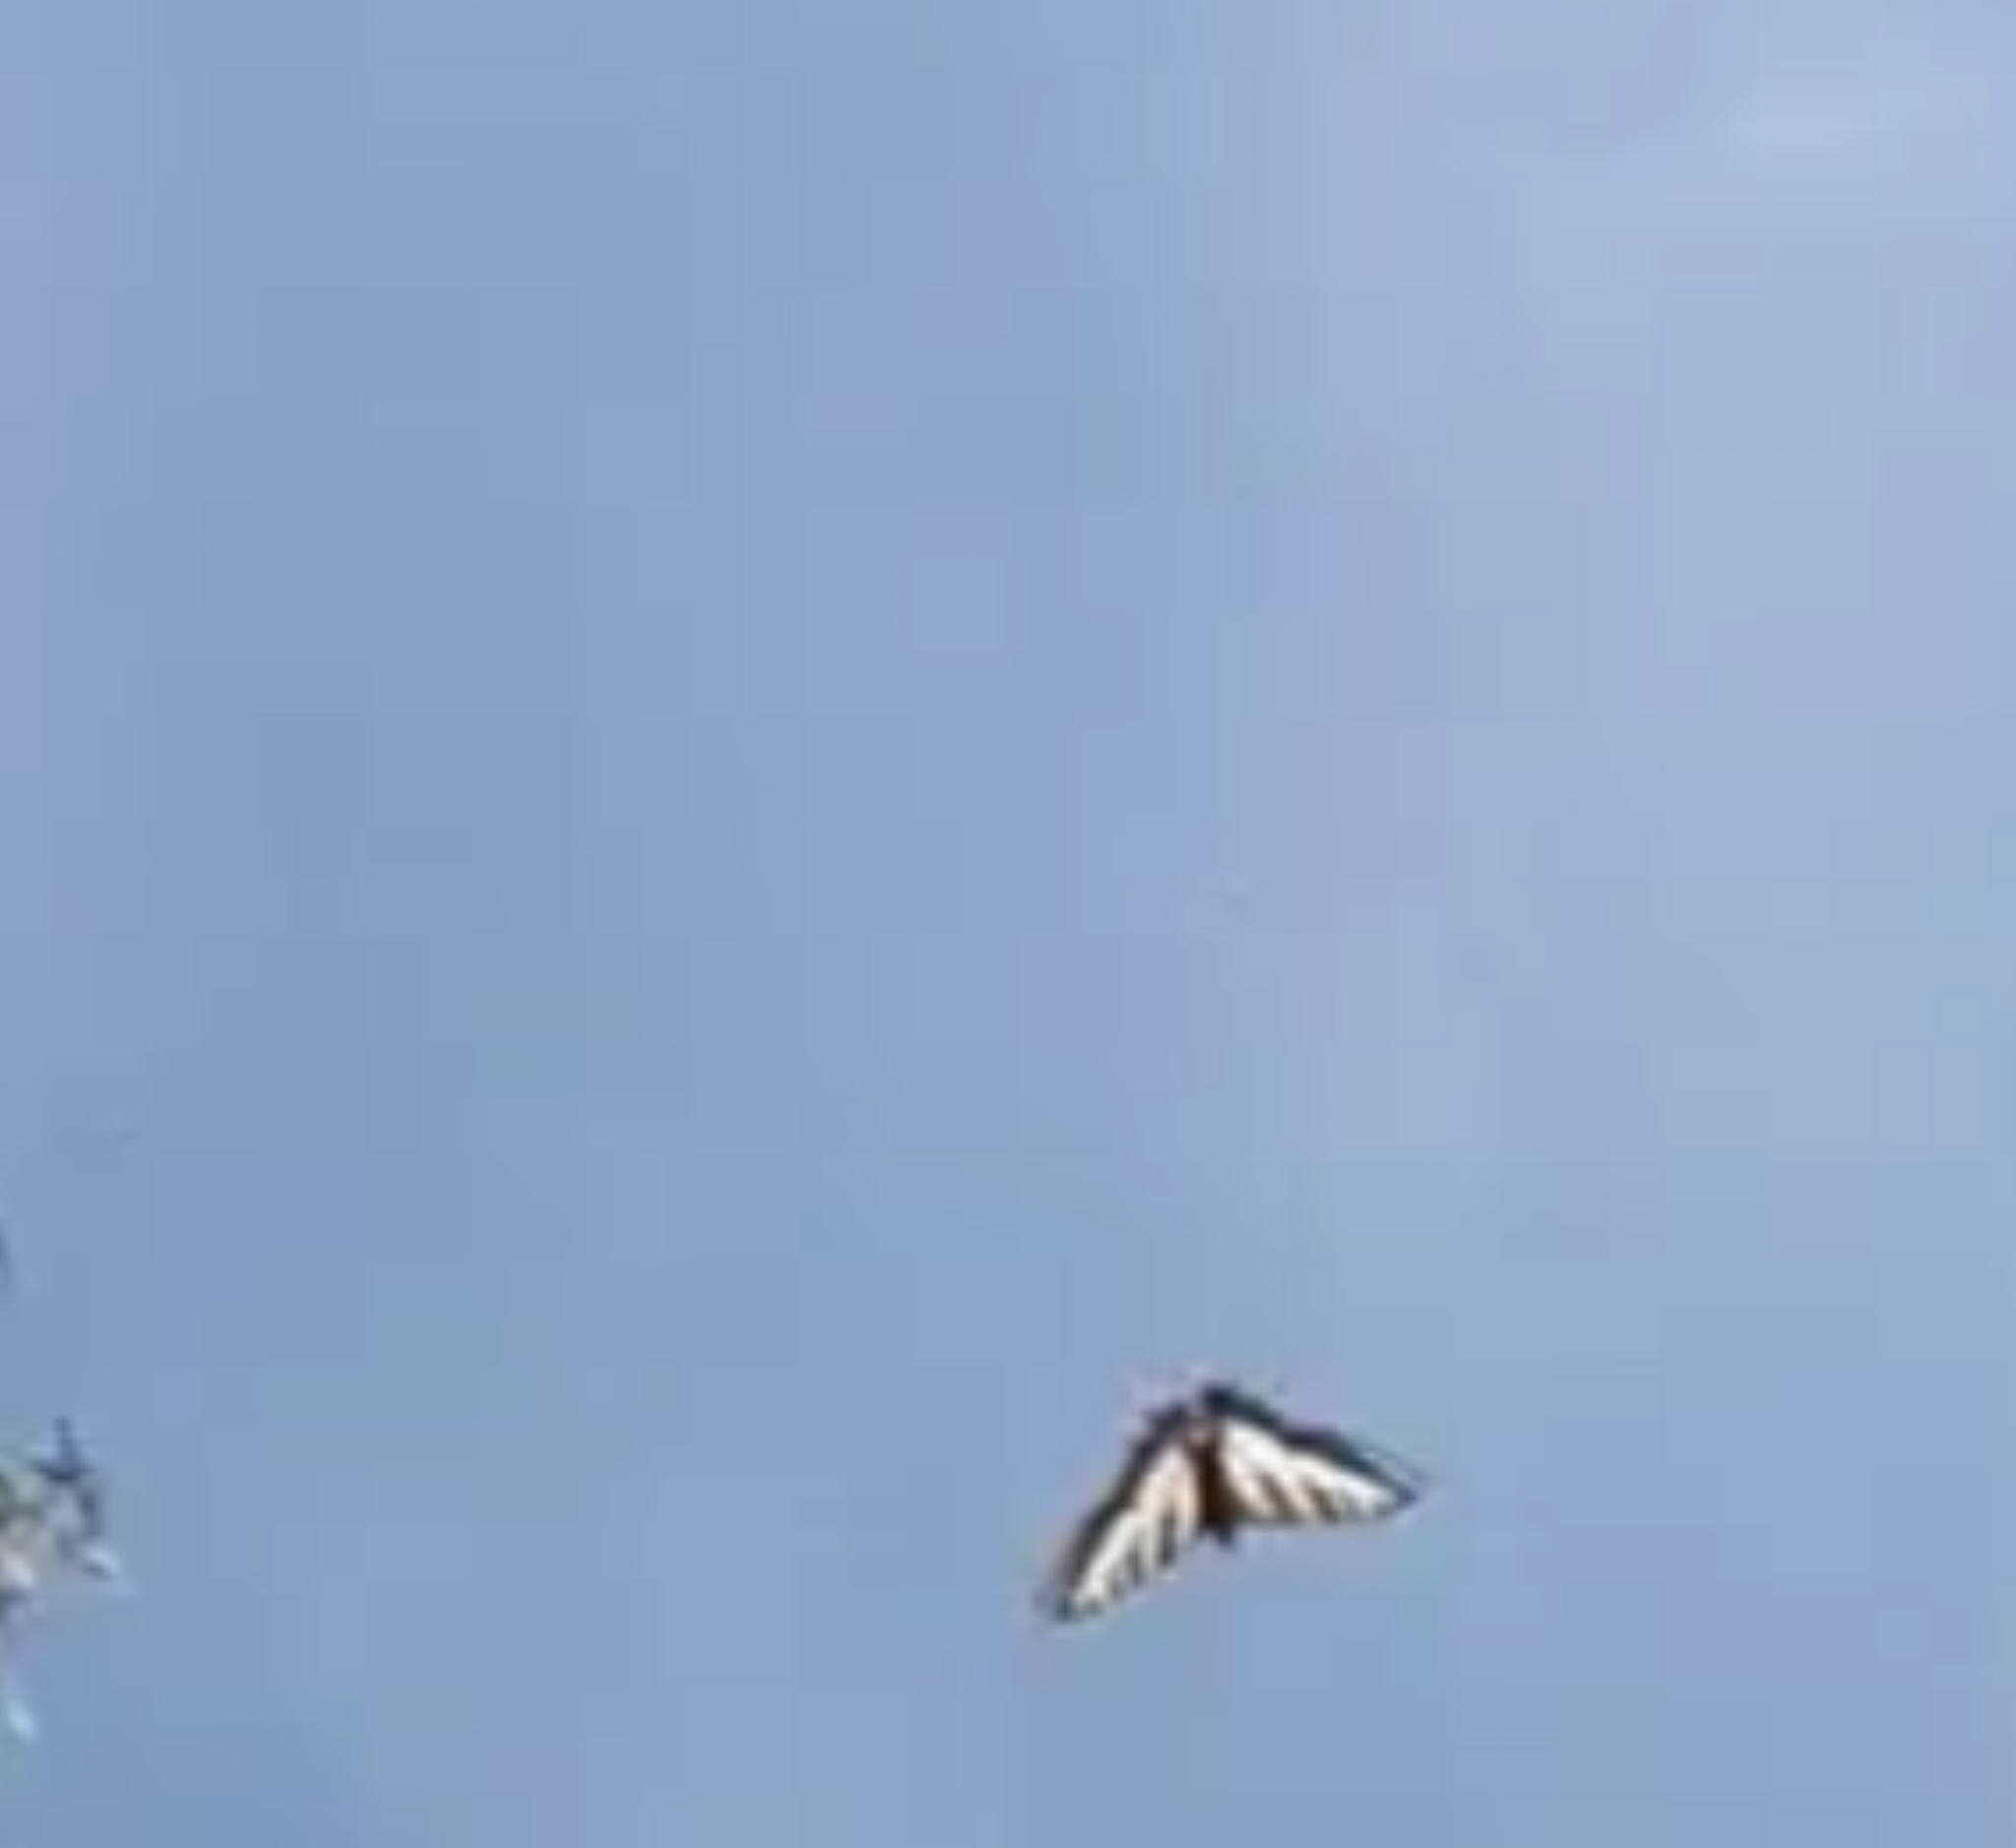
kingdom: Animalia
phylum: Arthropoda
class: Insecta
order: Lepidoptera
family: Papilionidae
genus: Papilio
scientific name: Papilio eurymedon
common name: Pale tiger swallowtail
